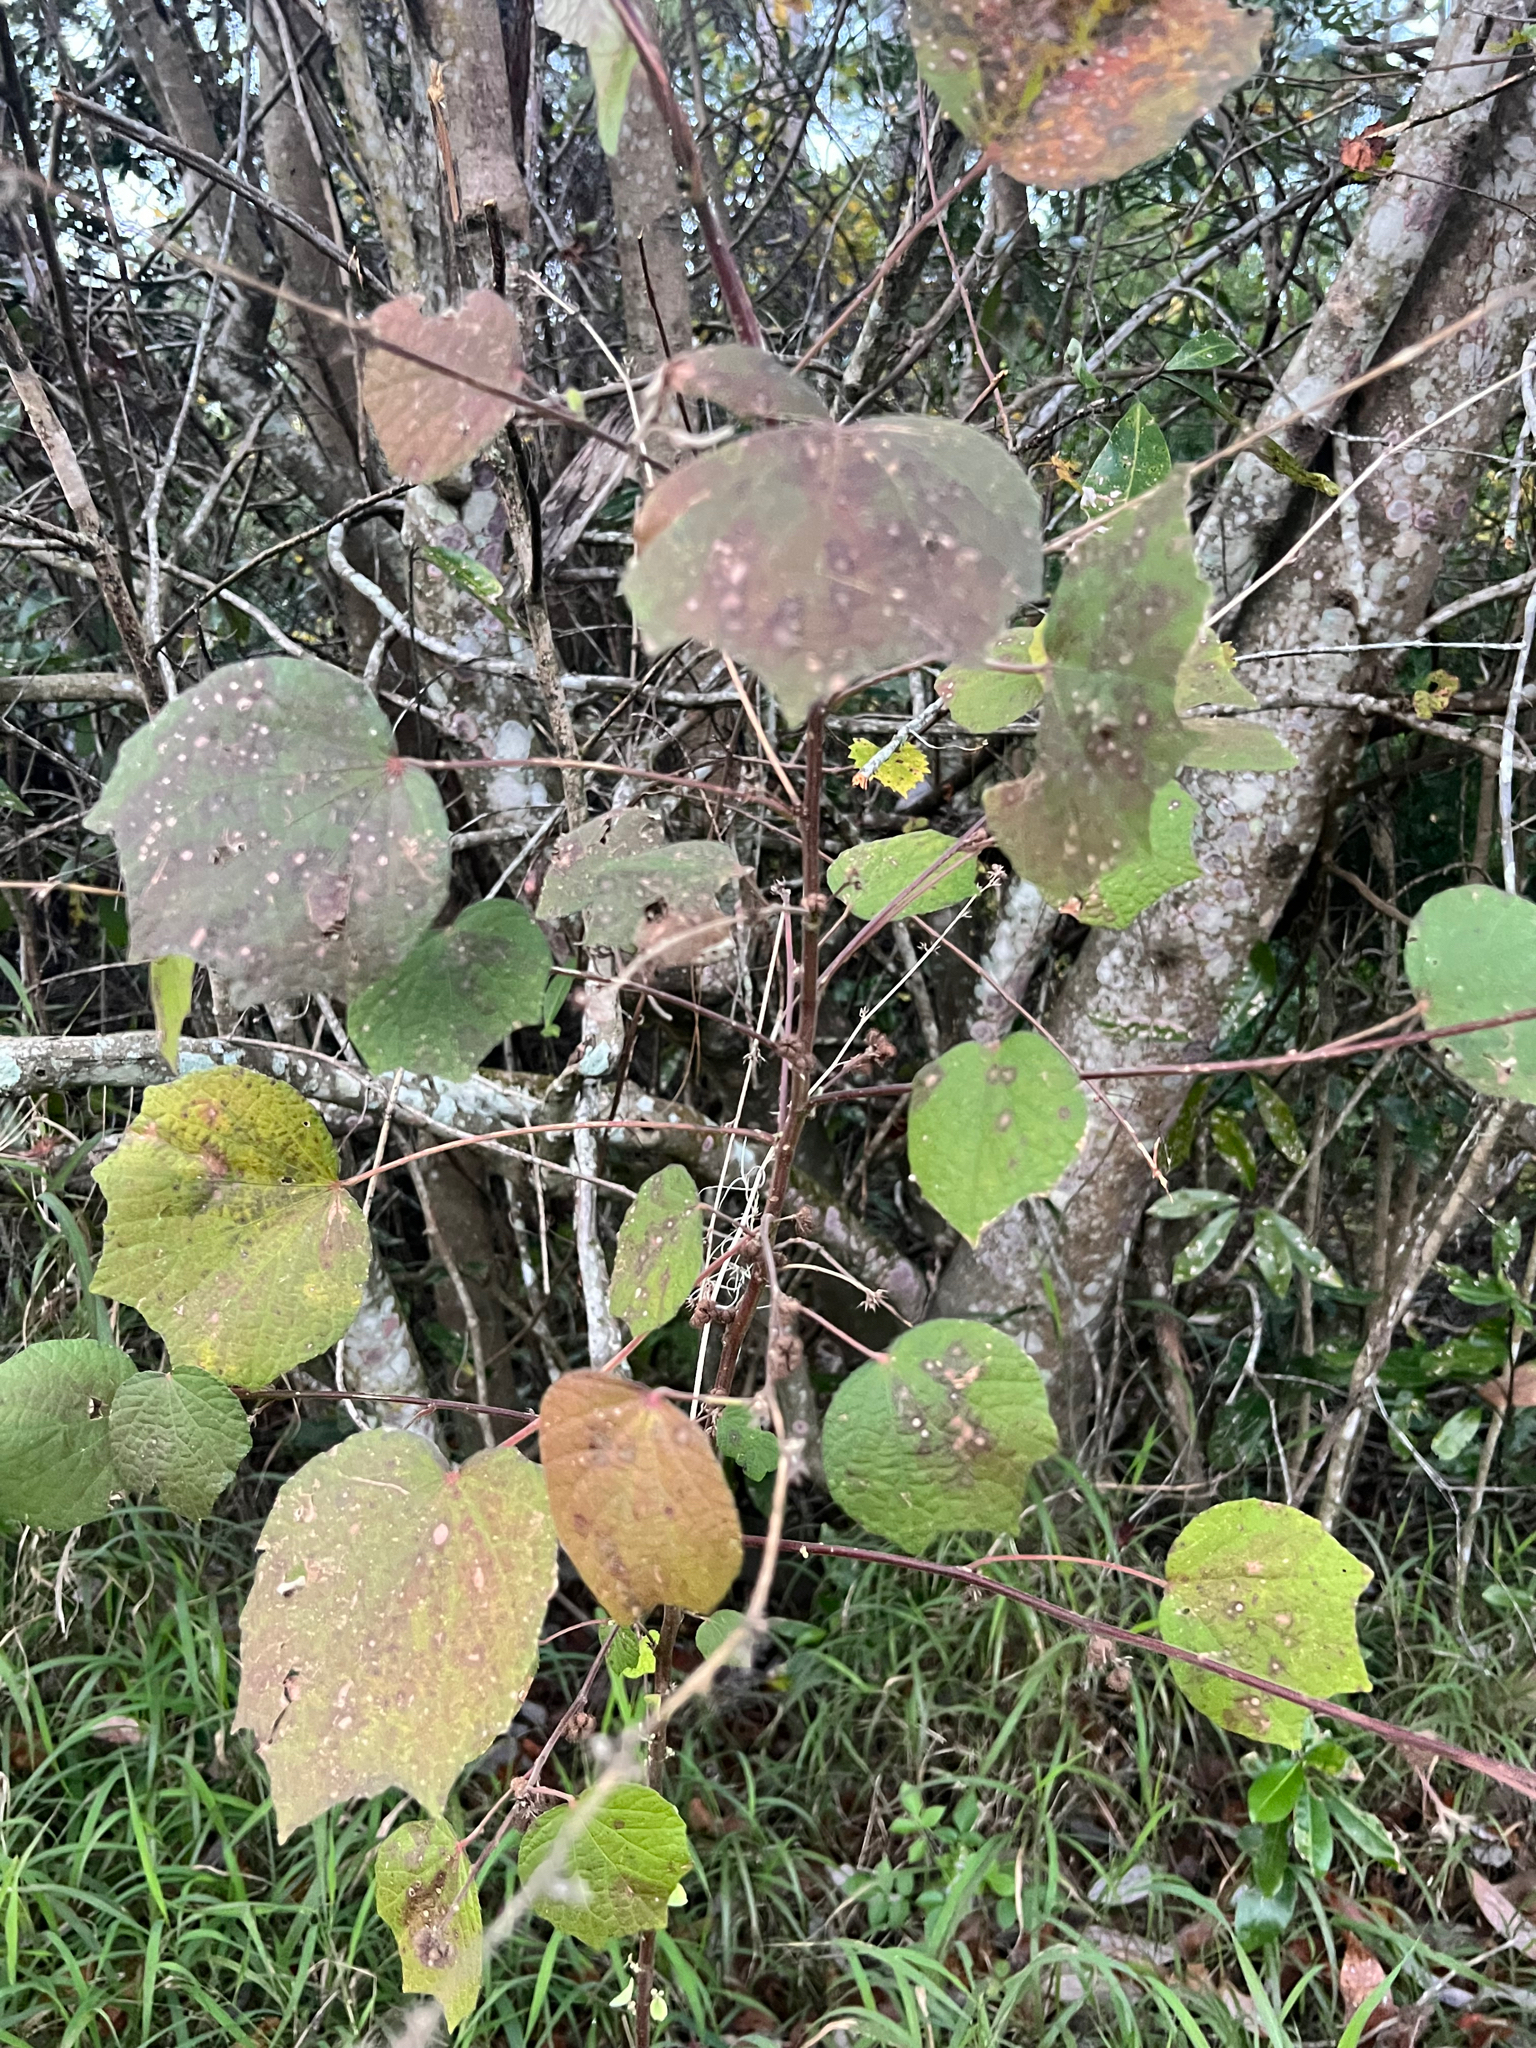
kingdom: Plantae
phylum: Tracheophyta
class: Magnoliopsida
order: Malvales
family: Malvaceae
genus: Urena
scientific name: Urena lobata
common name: Caesarweed
